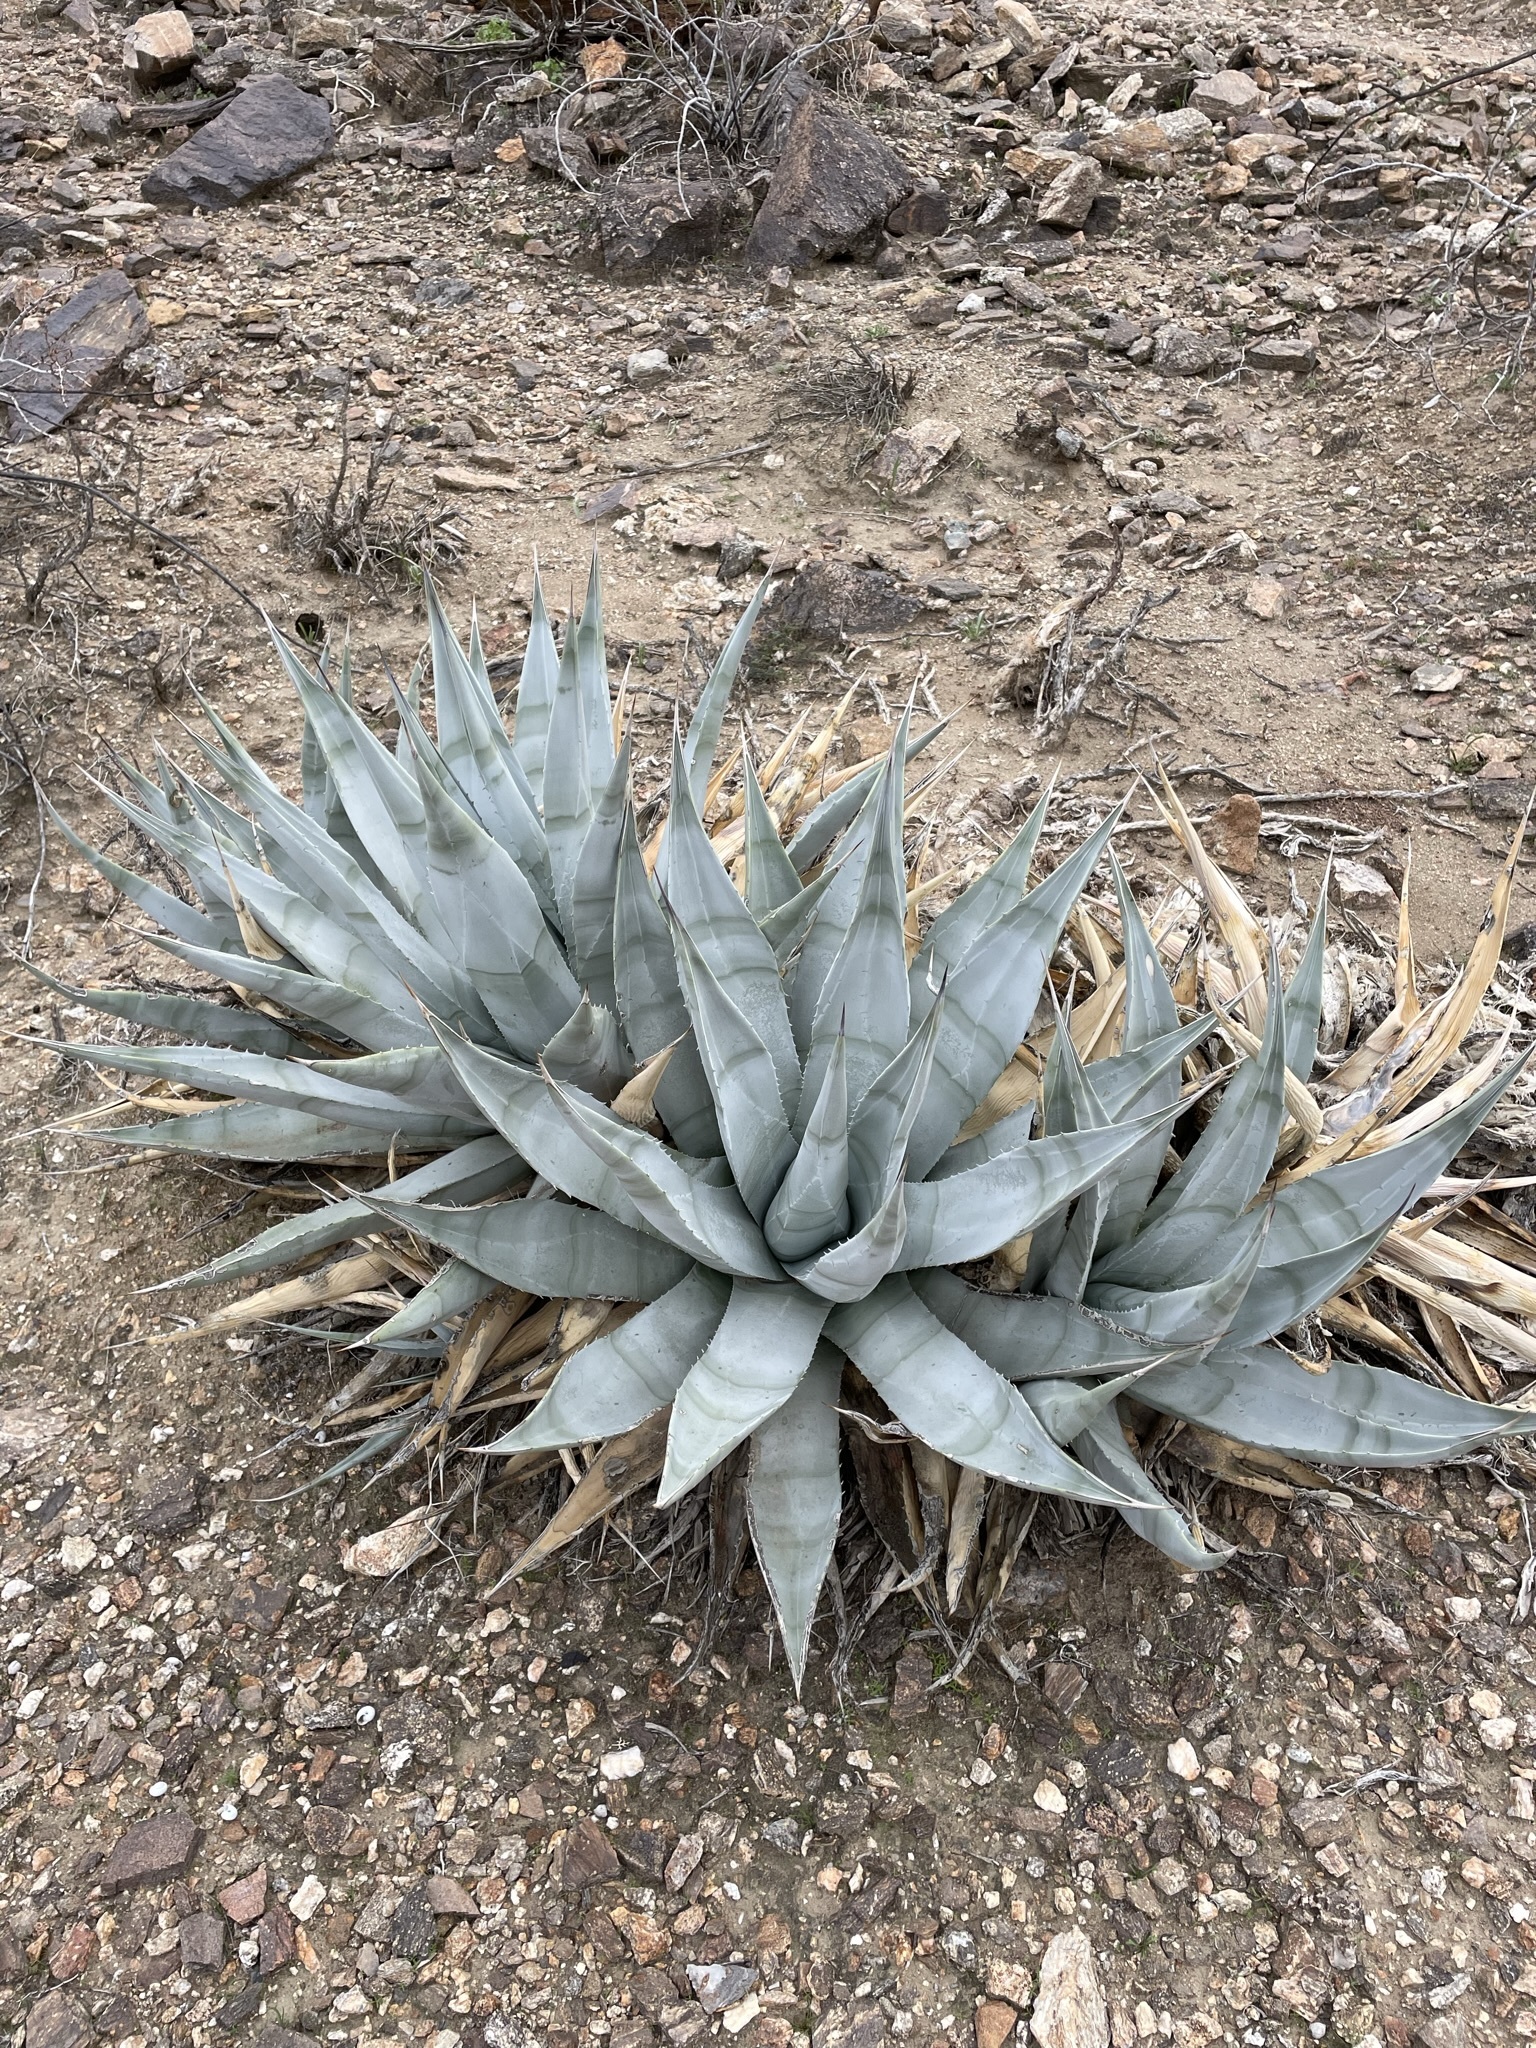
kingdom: Plantae
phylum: Tracheophyta
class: Liliopsida
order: Asparagales
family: Asparagaceae
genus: Agave
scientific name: Agave deserti
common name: Desert agave
